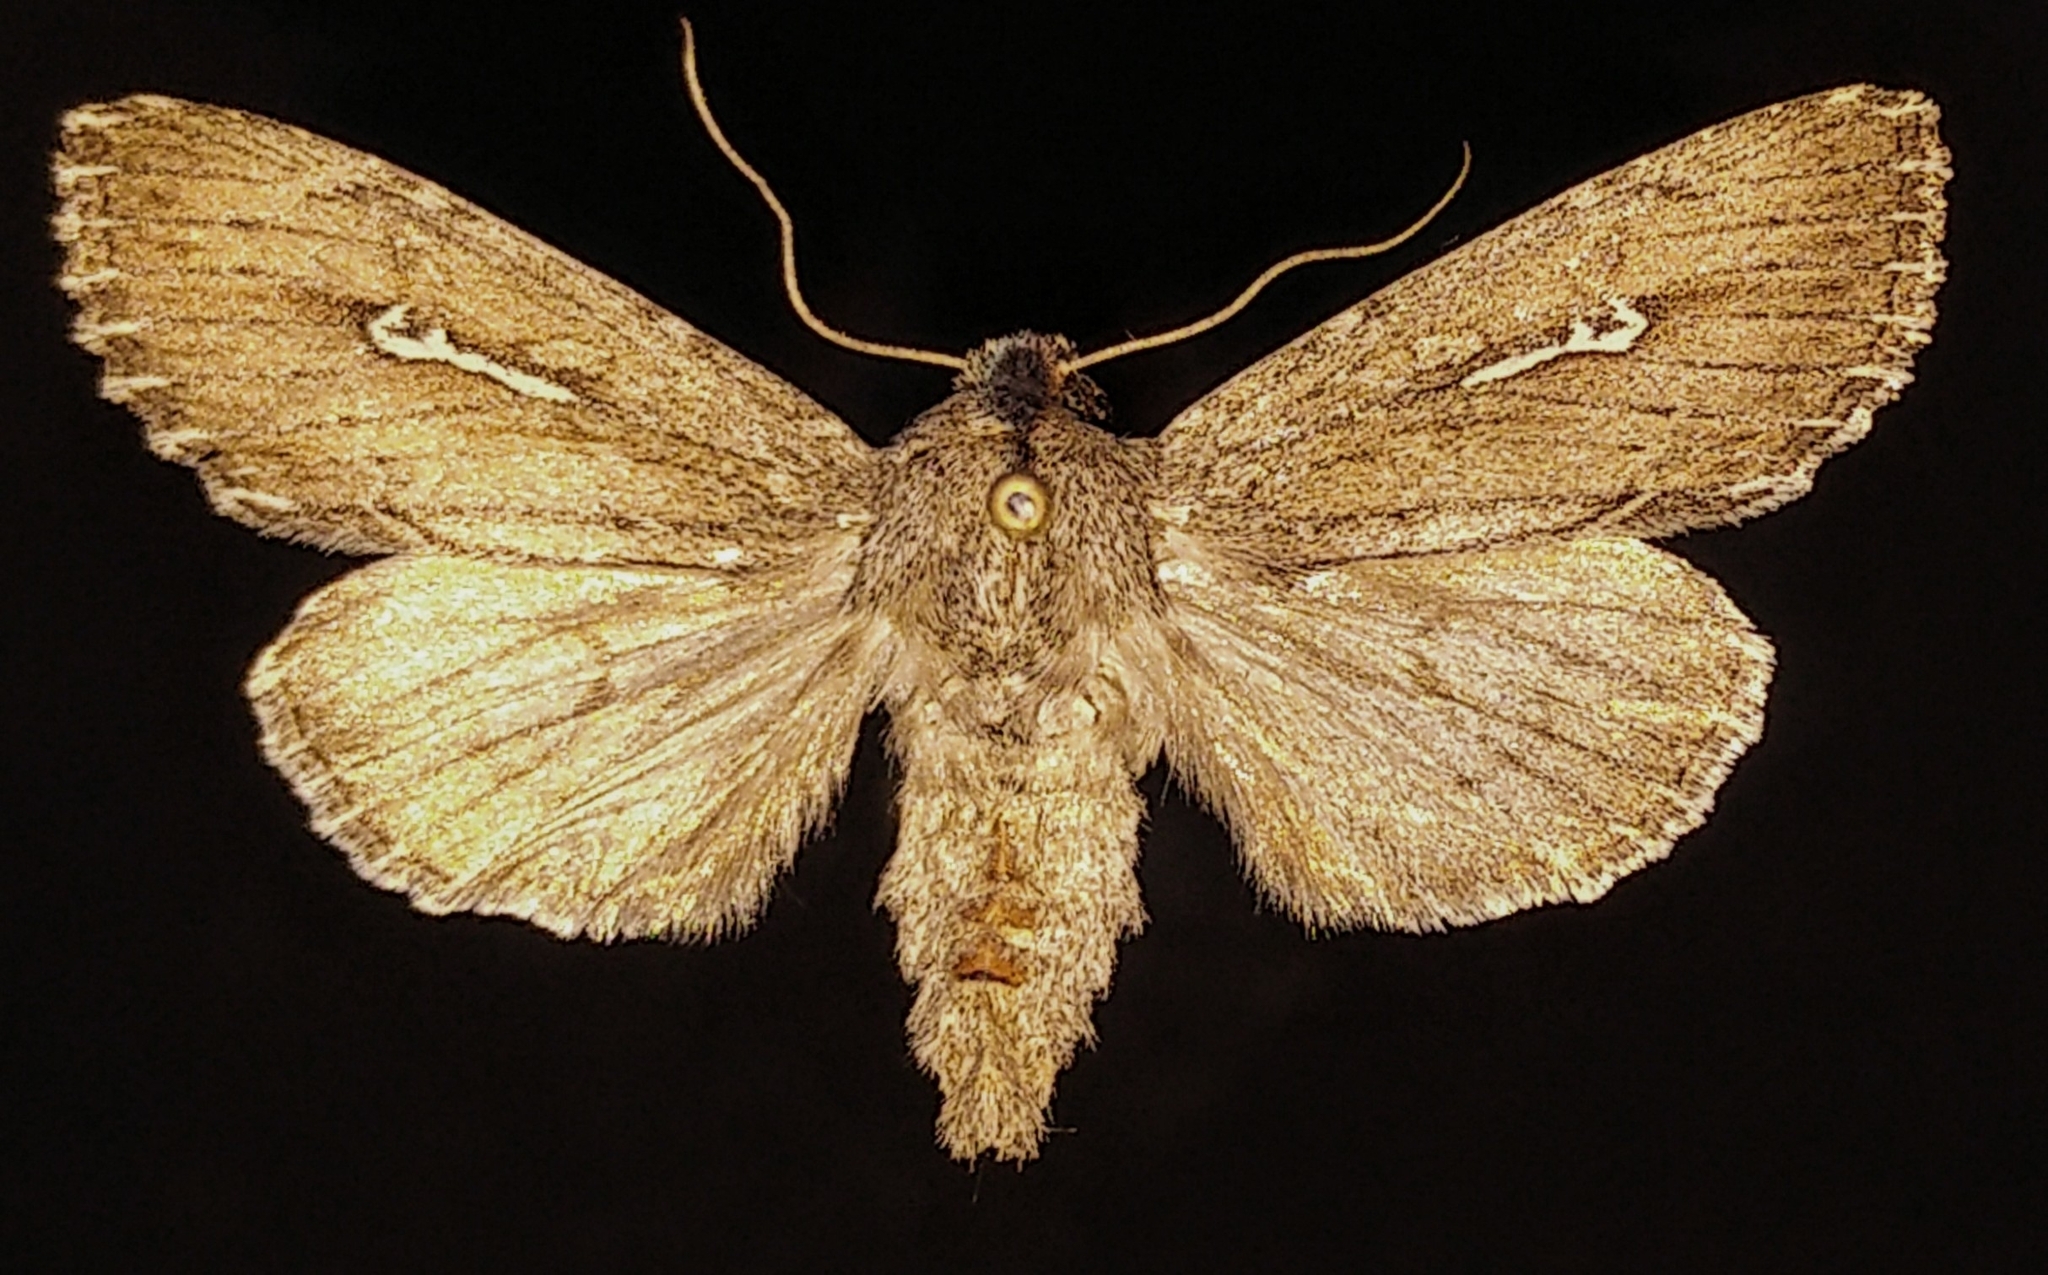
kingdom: Animalia
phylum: Arthropoda
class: Insecta
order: Lepidoptera
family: Noctuidae
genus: Sideridis
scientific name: Sideridis uscripta
